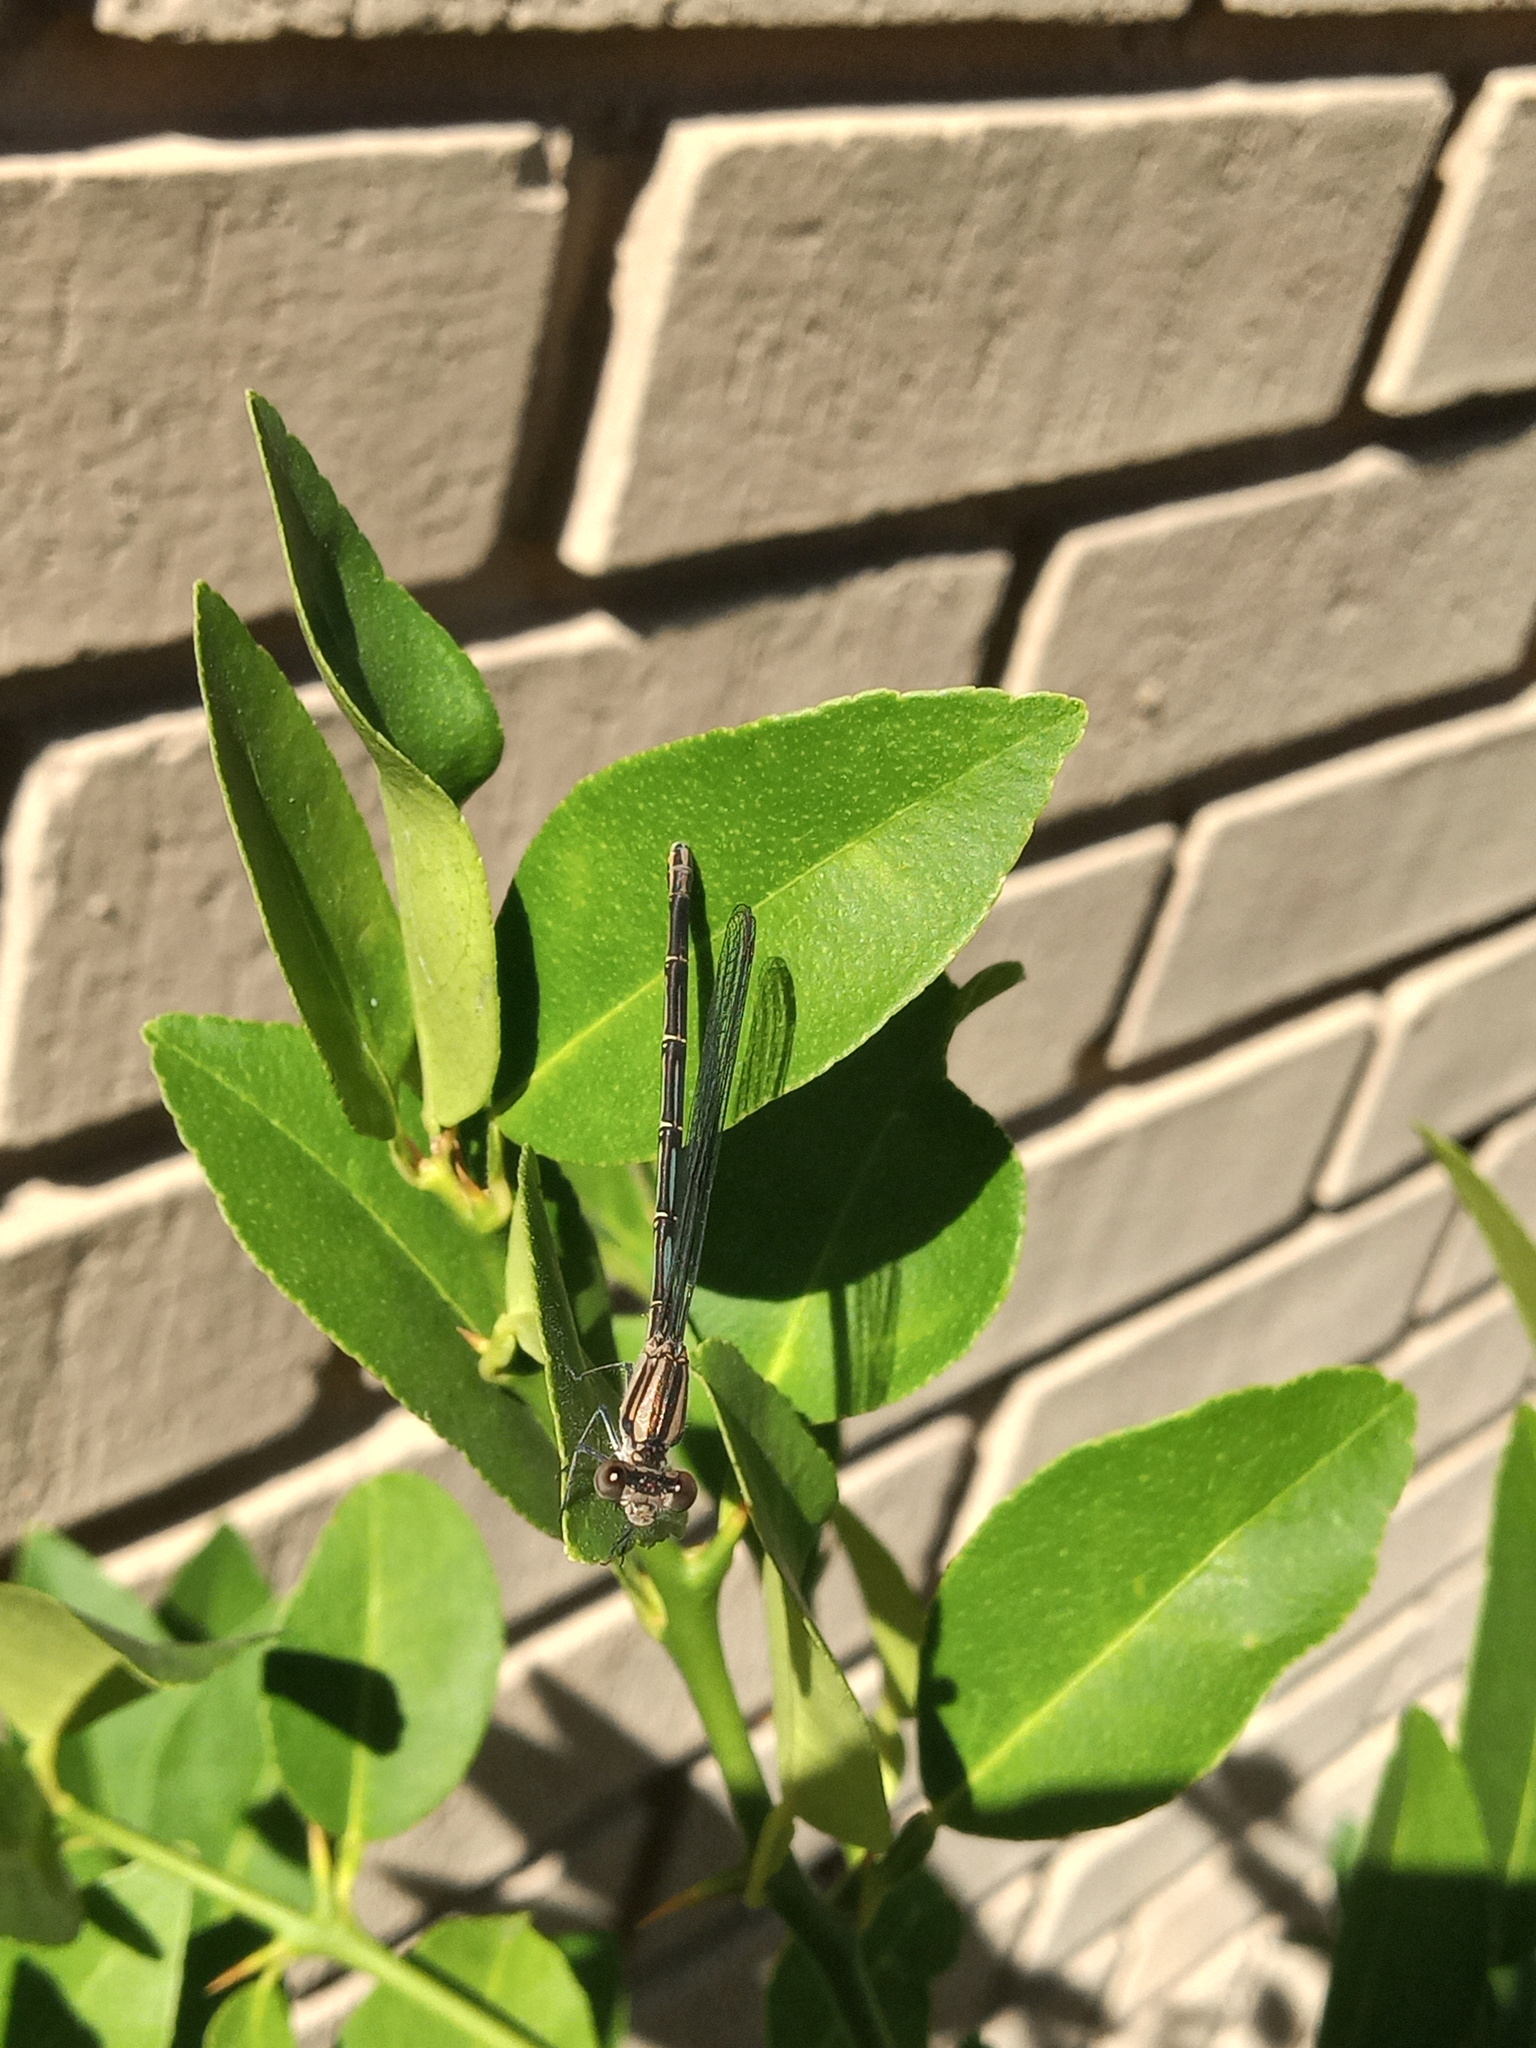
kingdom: Animalia
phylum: Arthropoda
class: Insecta
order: Odonata
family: Coenagrionidae
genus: Argia
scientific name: Argia translata
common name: Dusky dancer
